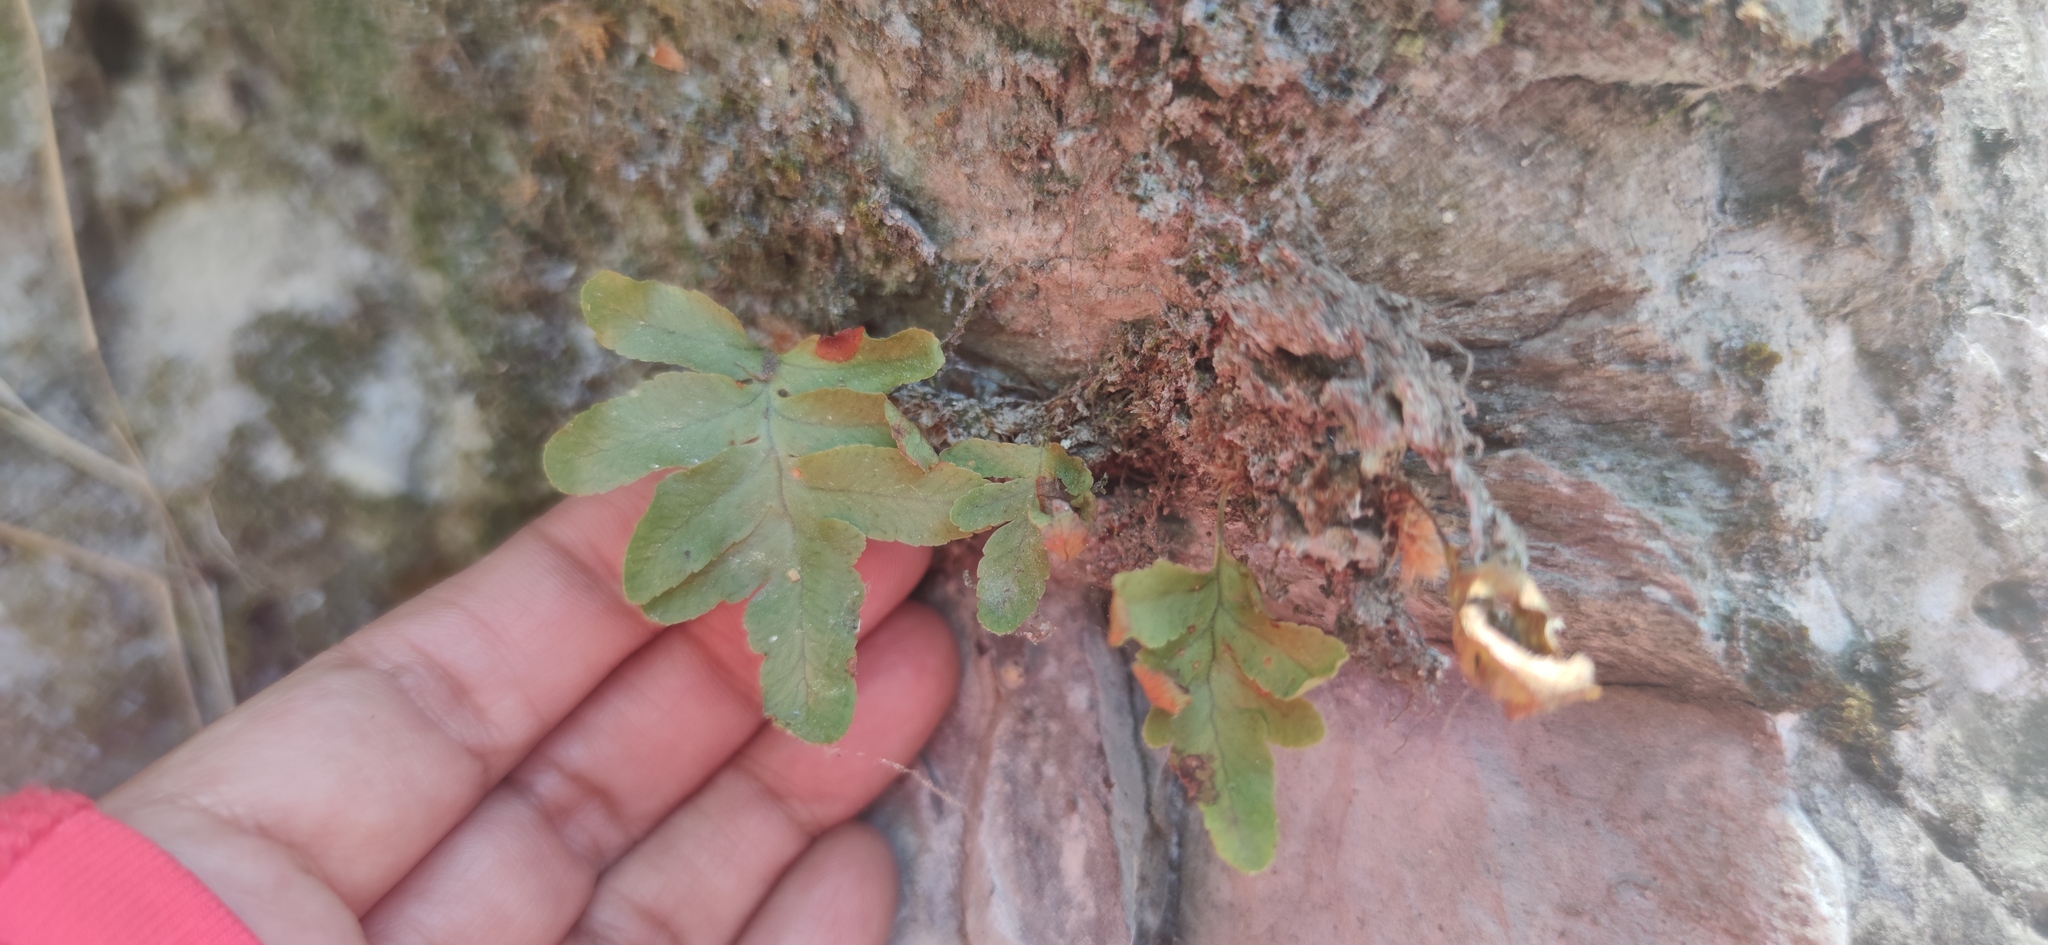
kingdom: Plantae
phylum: Tracheophyta
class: Polypodiopsida
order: Polypodiales
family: Polypodiaceae
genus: Pleopeltis
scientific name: Pleopeltis fallacissima
